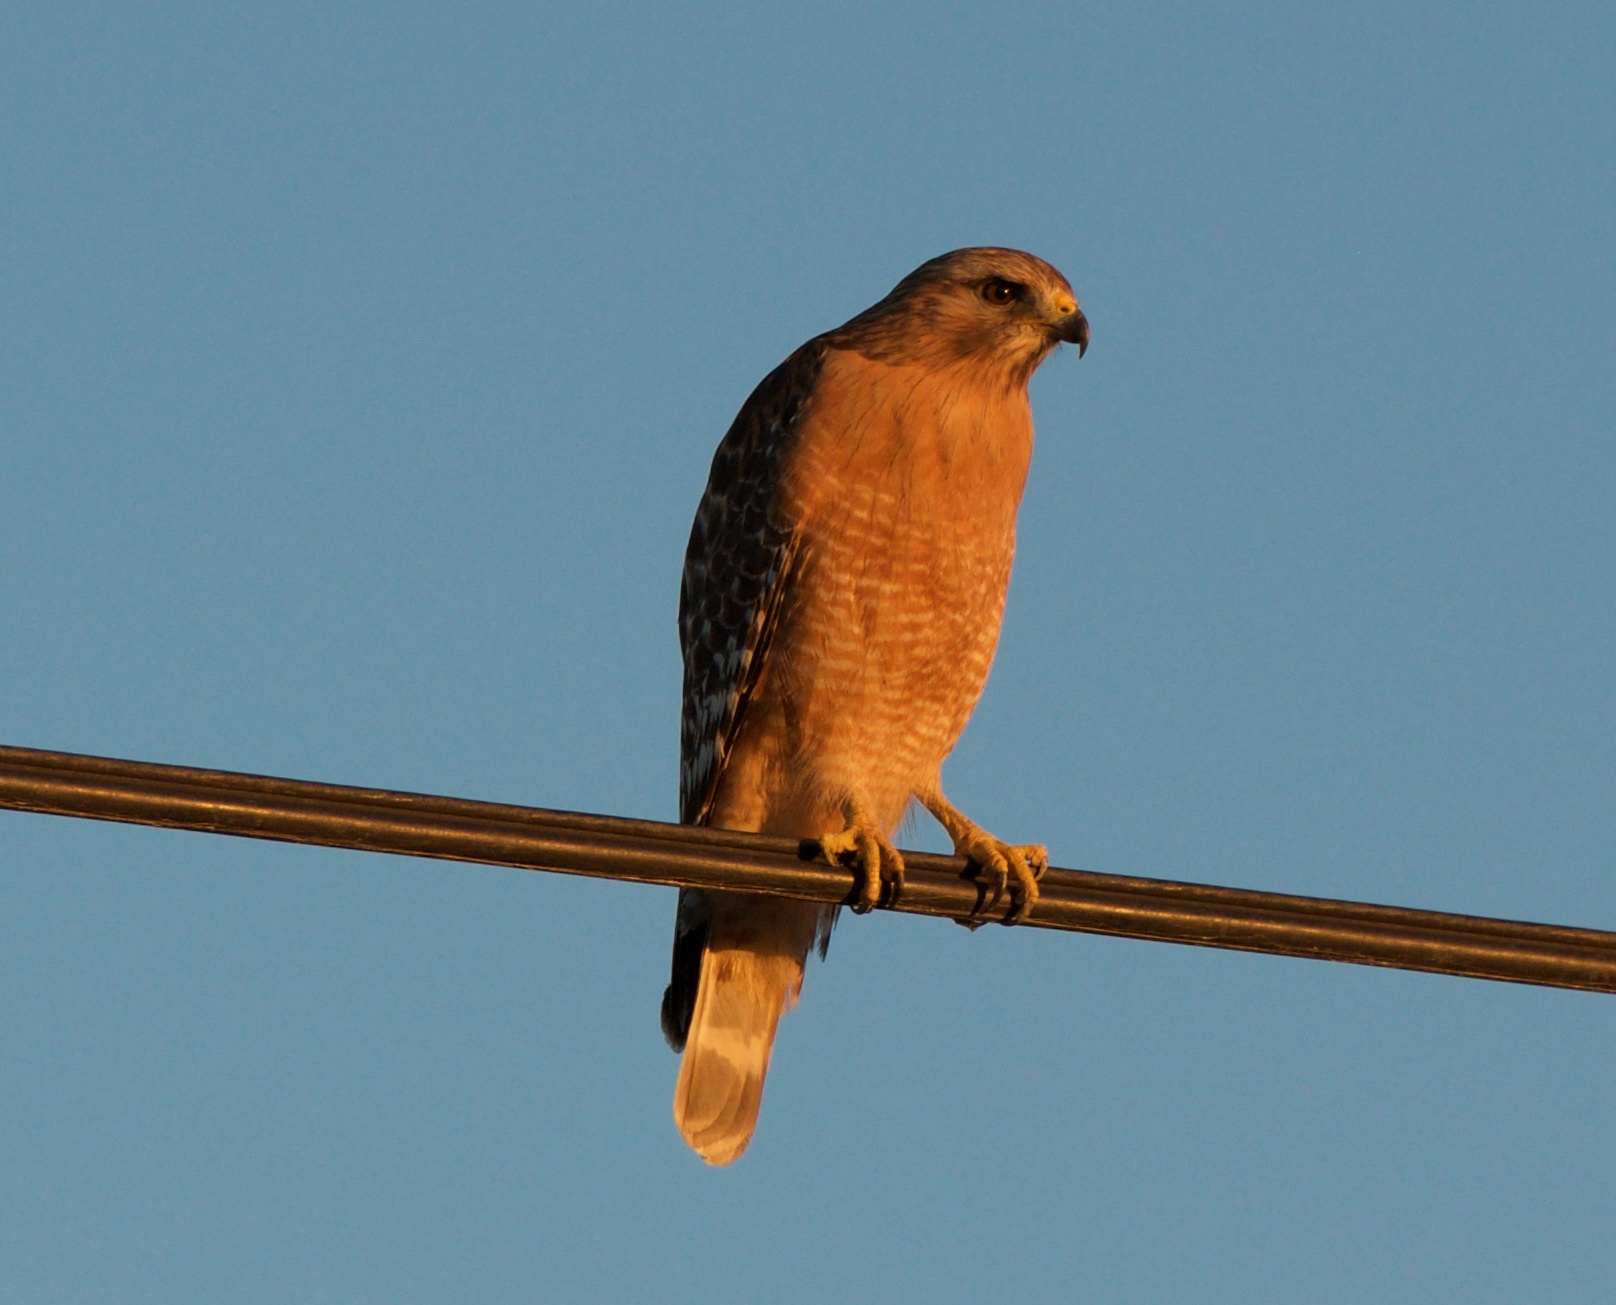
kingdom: Animalia
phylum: Chordata
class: Aves
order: Accipitriformes
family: Accipitridae
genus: Buteo
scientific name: Buteo lineatus
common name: Red-shouldered hawk
